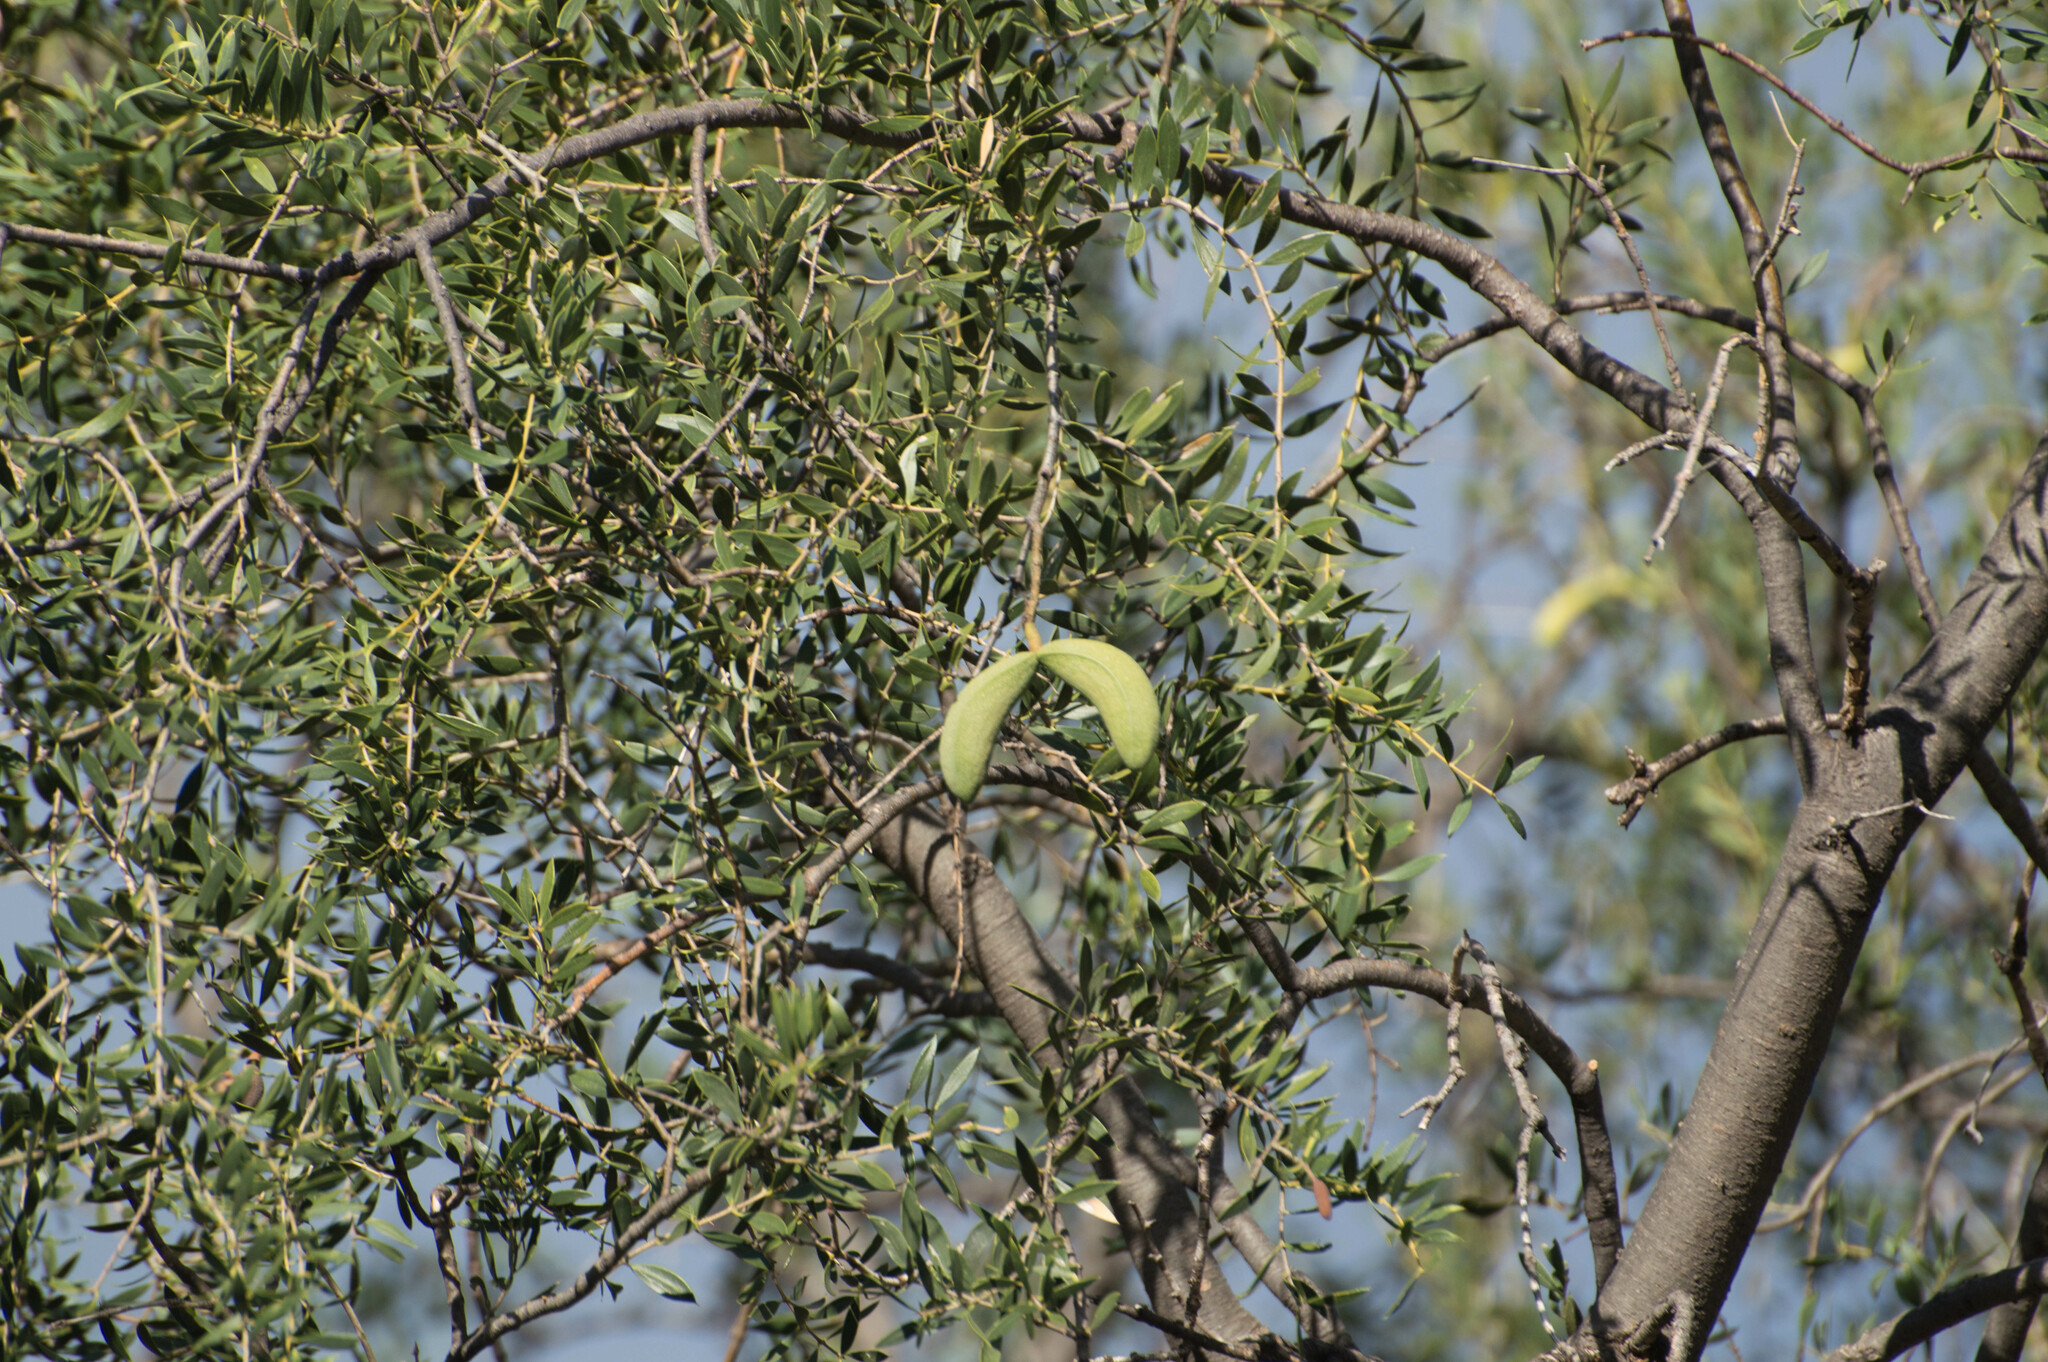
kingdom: Plantae
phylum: Tracheophyta
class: Magnoliopsida
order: Gentianales
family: Apocynaceae
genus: Aspidosperma
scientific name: Aspidosperma quebracho-blanco
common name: White quebracho
